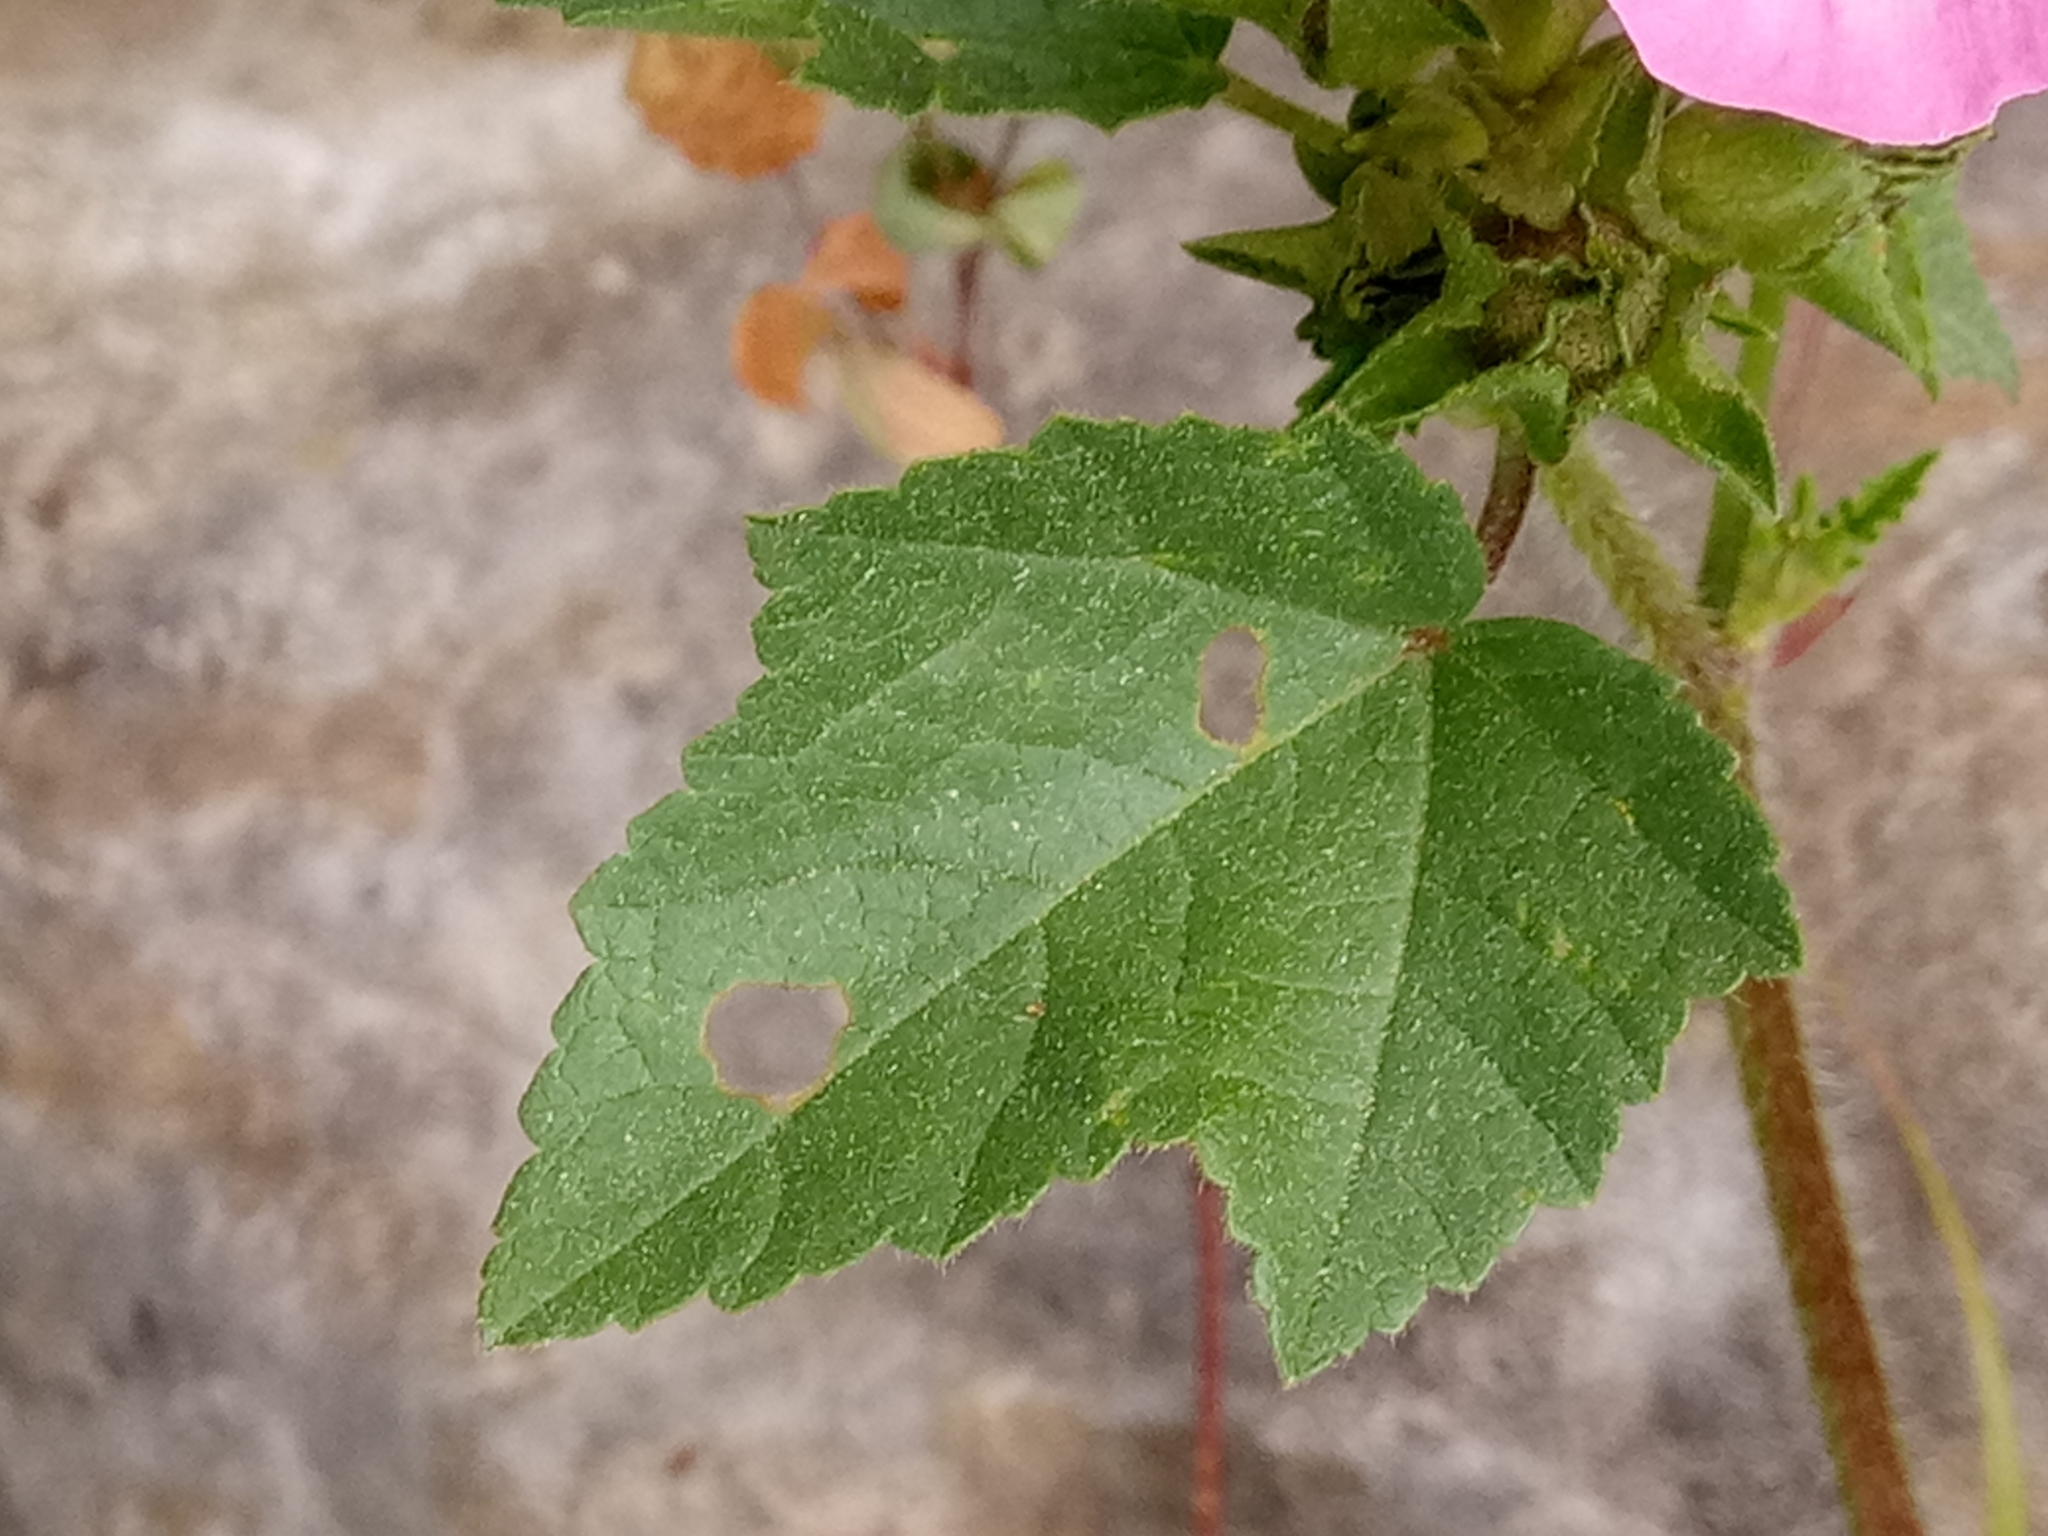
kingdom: Plantae
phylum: Tracheophyta
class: Magnoliopsida
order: Malvales
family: Malvaceae
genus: Malva
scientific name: Malva trimestris
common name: Royal mallow
